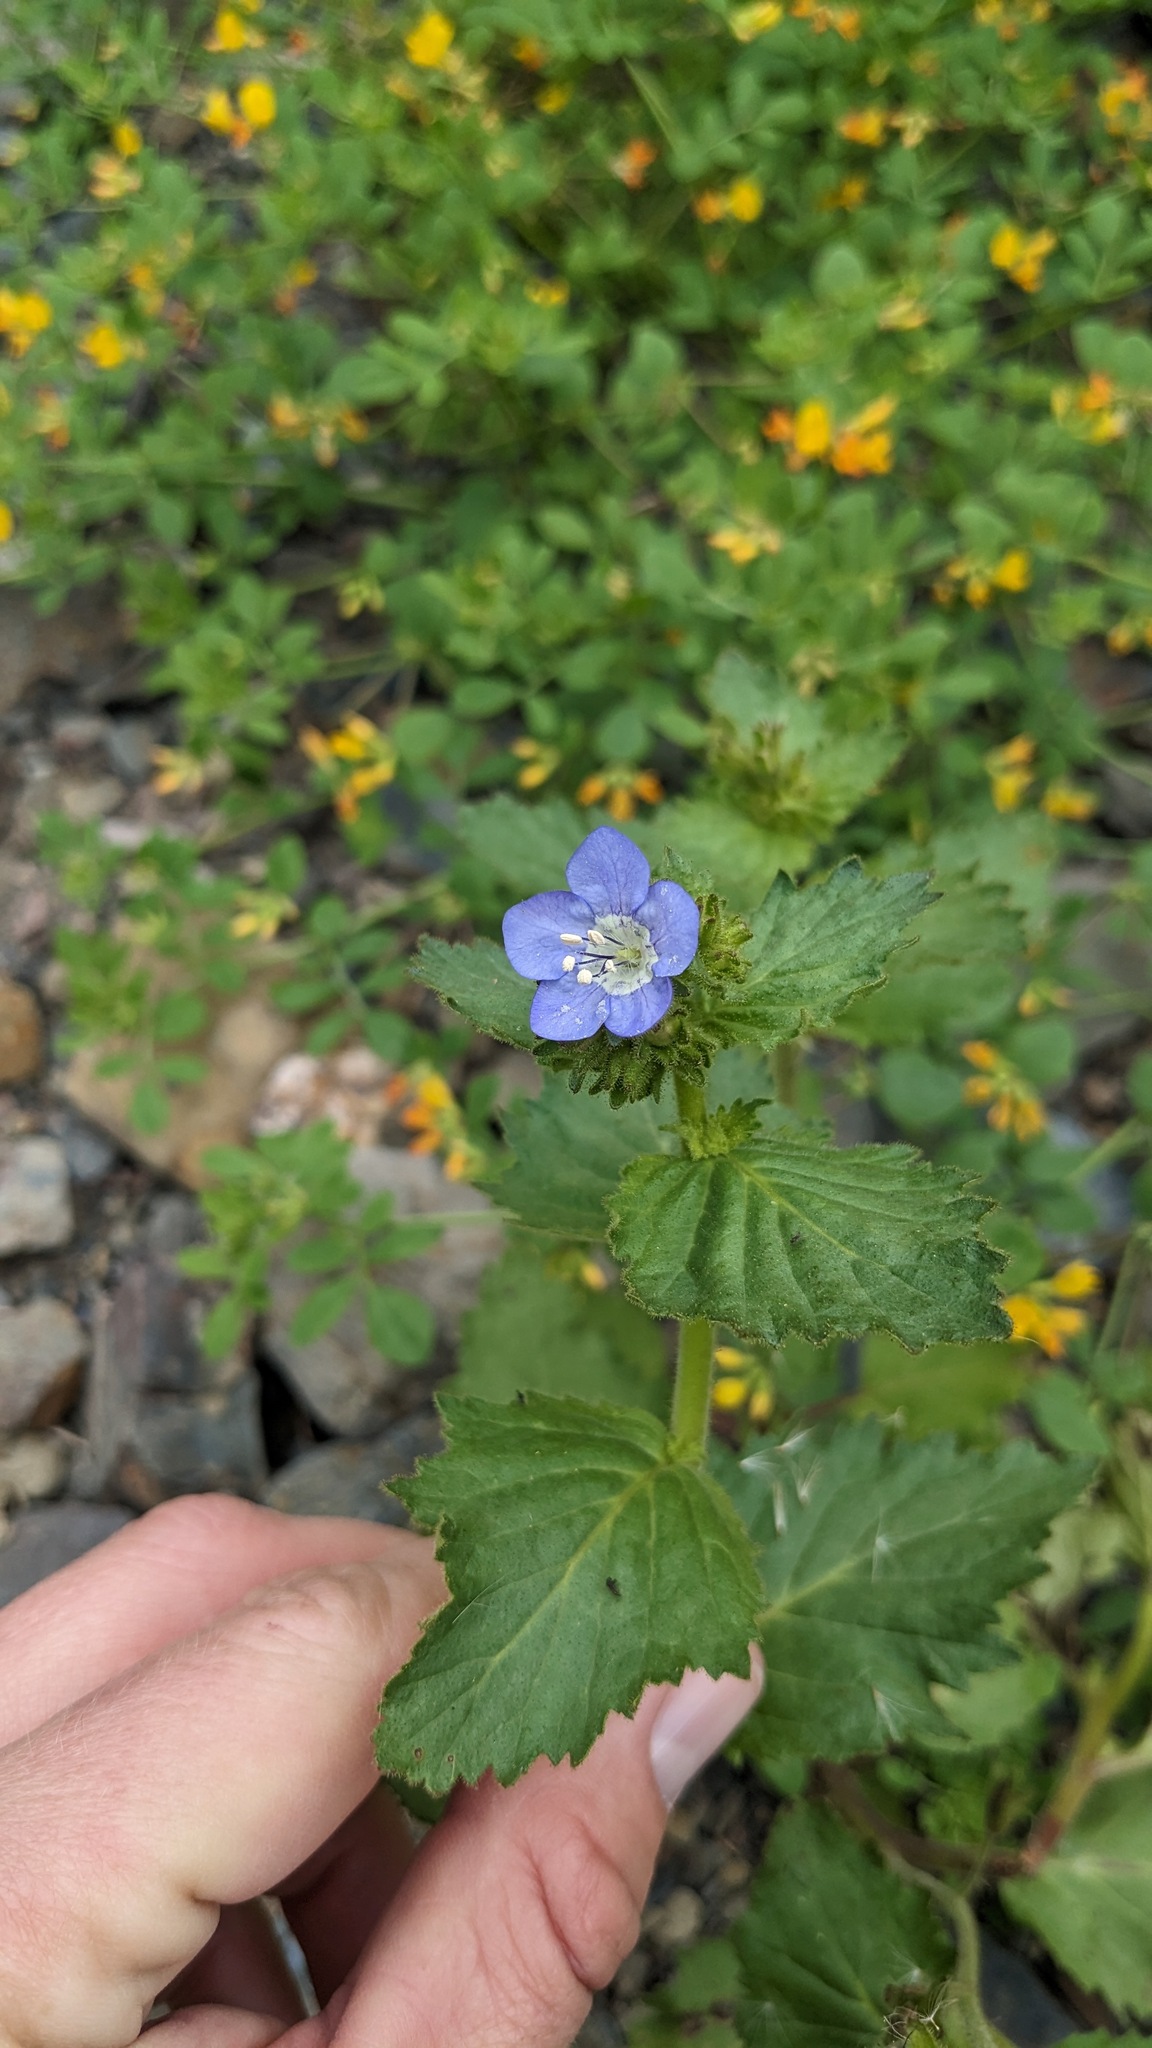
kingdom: Plantae
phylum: Tracheophyta
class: Magnoliopsida
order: Boraginales
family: Hydrophyllaceae
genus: Phacelia
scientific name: Phacelia viscida
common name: Sticky phacelia
